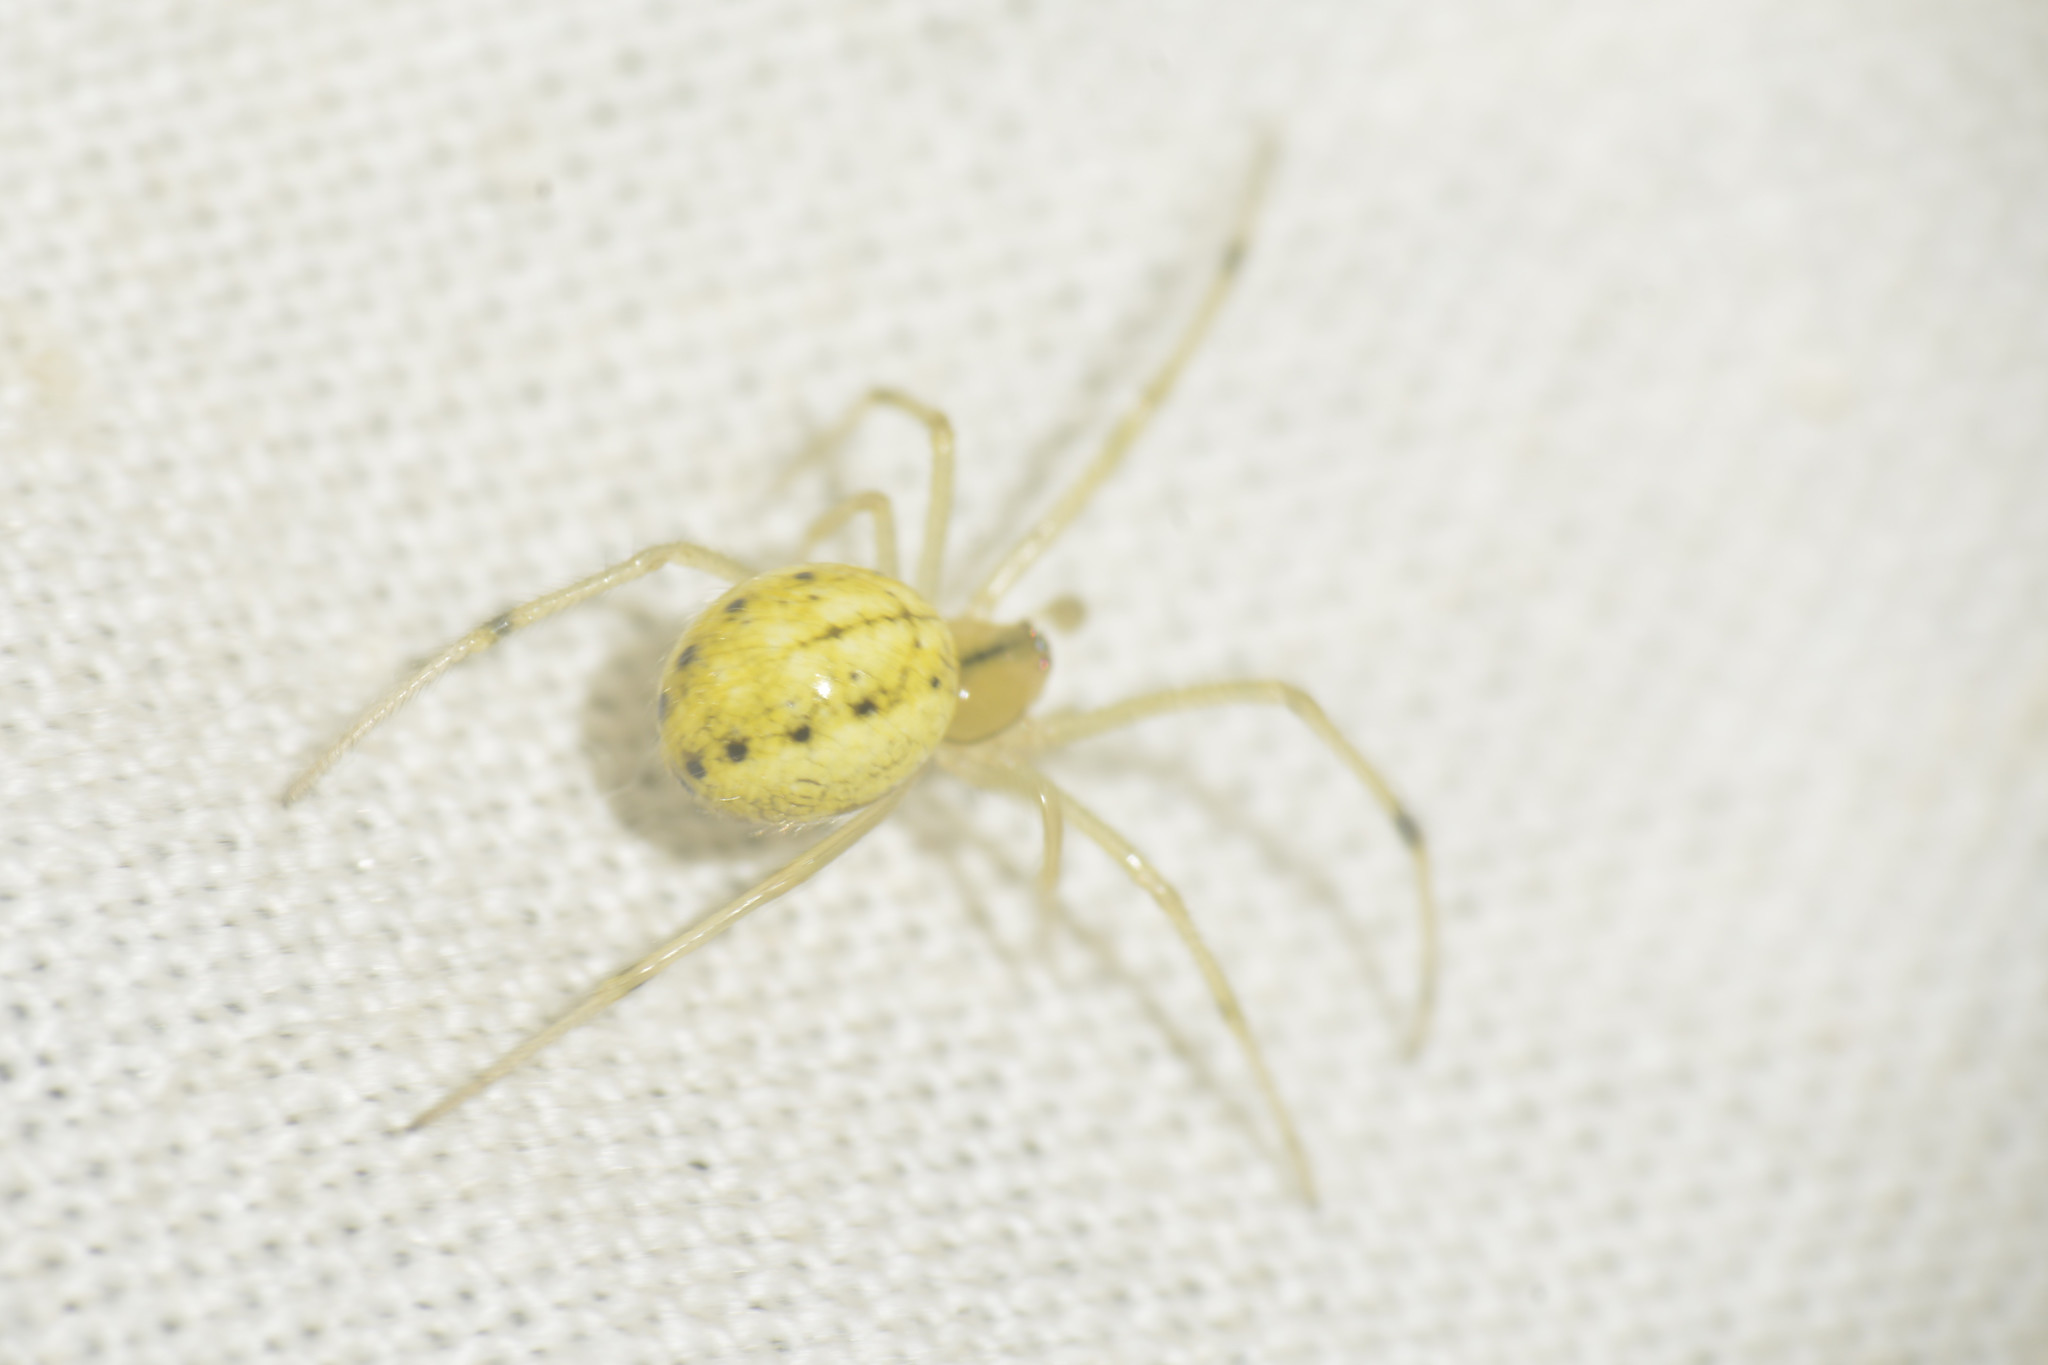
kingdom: Animalia
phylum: Arthropoda
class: Arachnida
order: Araneae
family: Theridiidae
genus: Enoplognatha
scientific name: Enoplognatha
